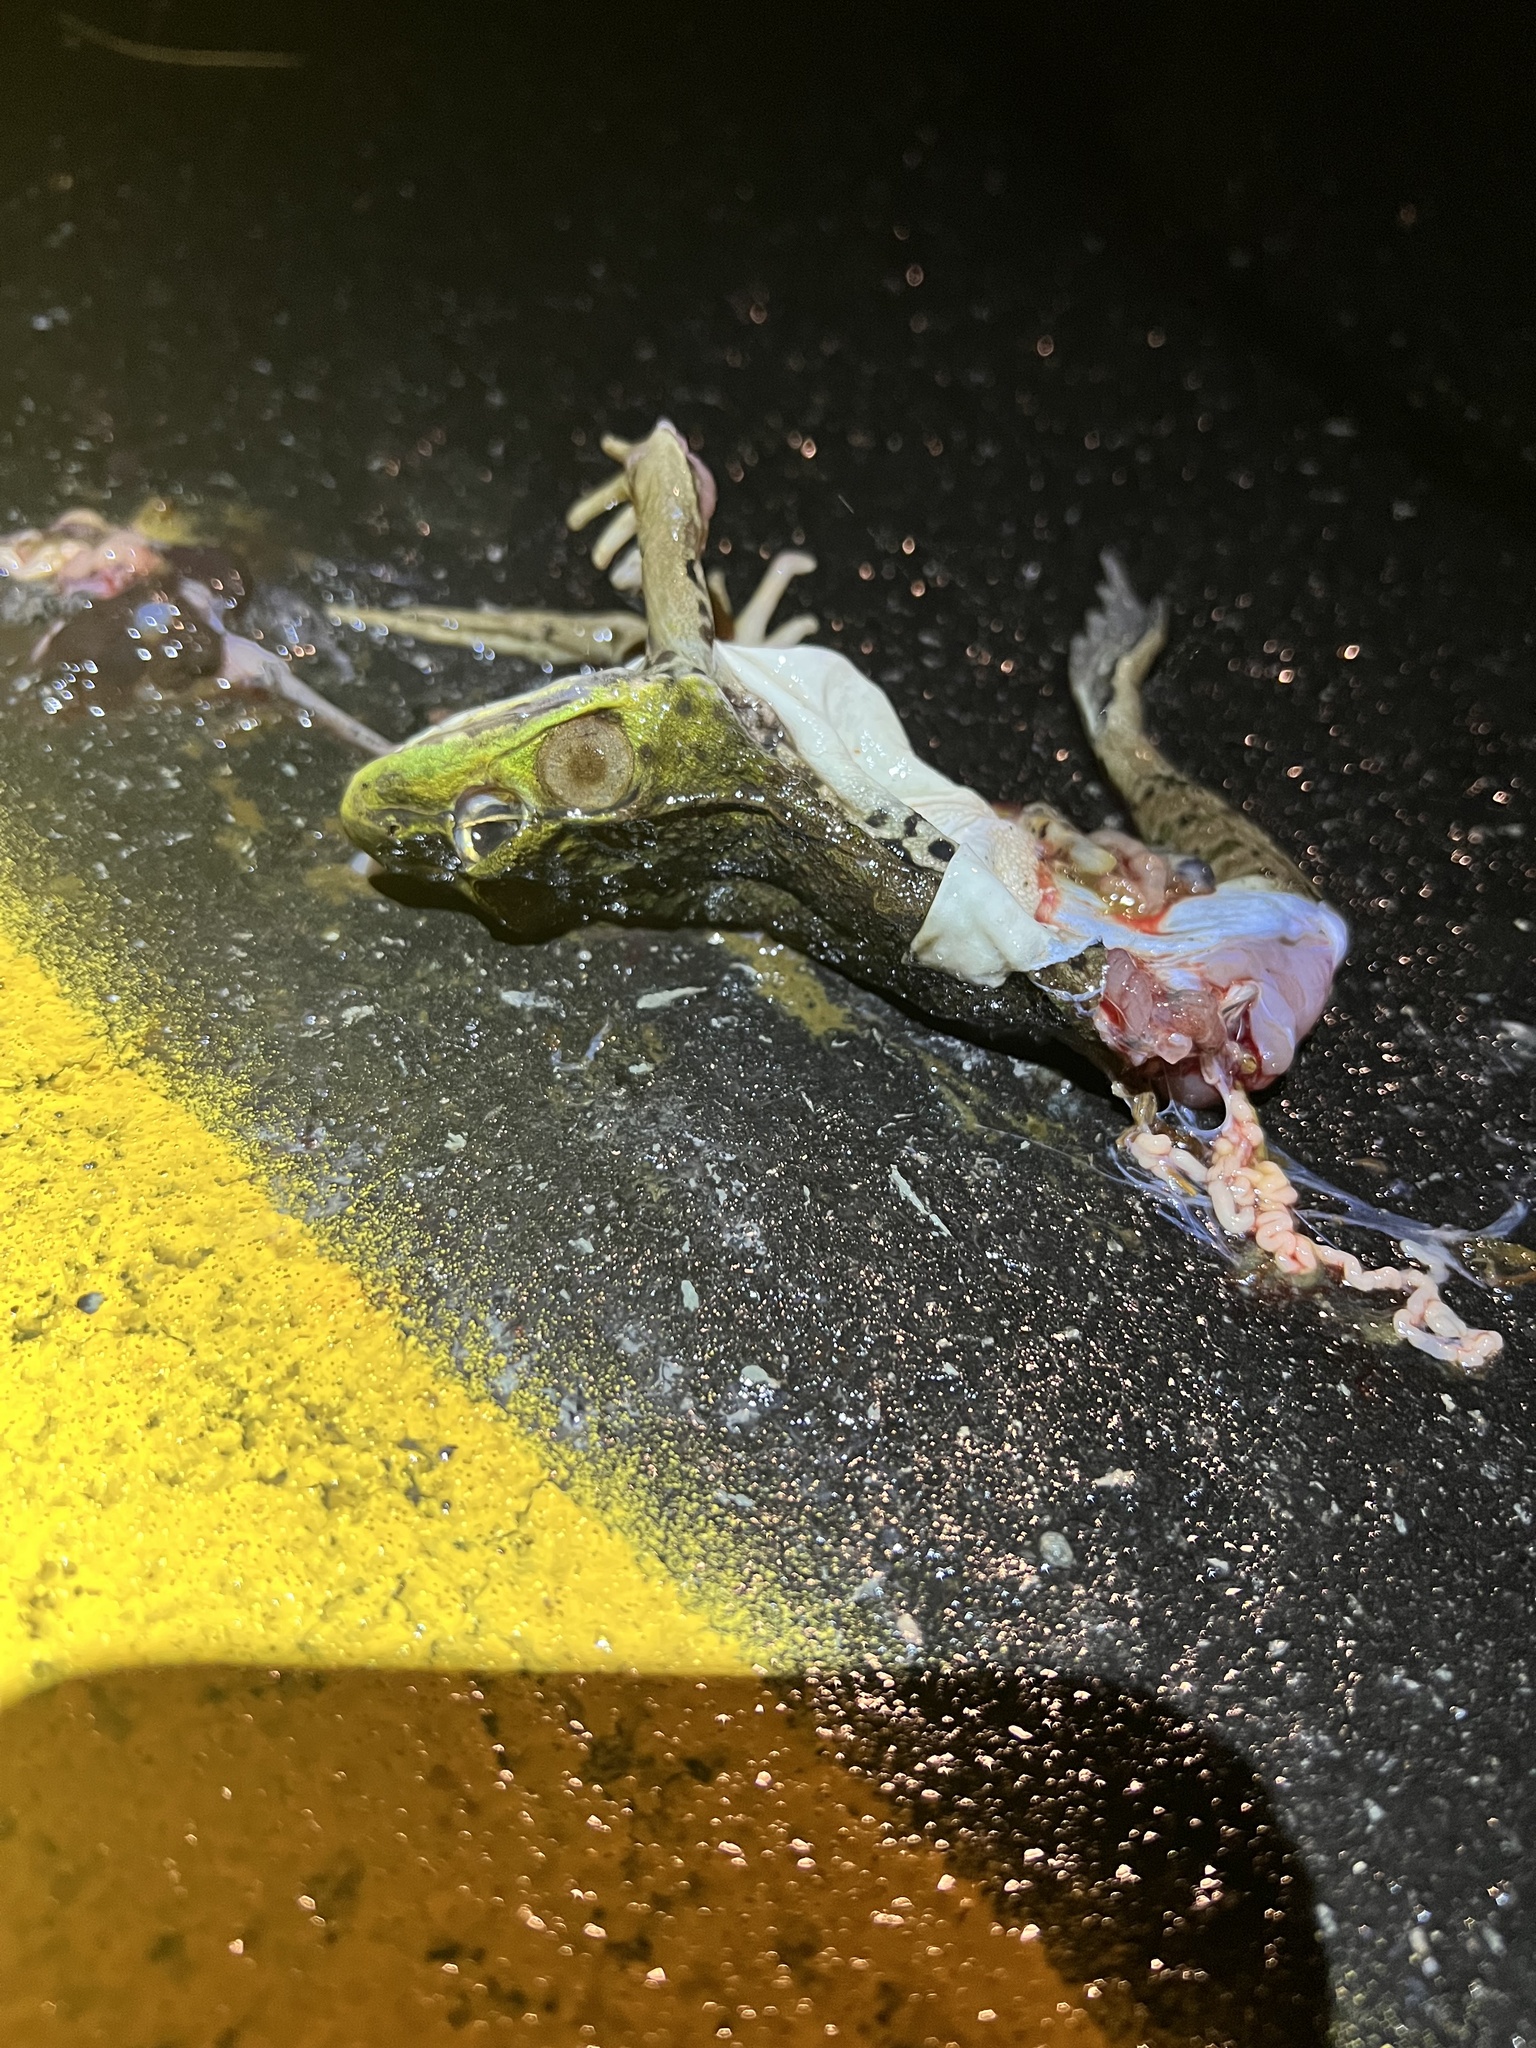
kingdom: Animalia
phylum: Chordata
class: Amphibia
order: Anura
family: Ranidae
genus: Lithobates
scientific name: Lithobates clamitans
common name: Green frog
